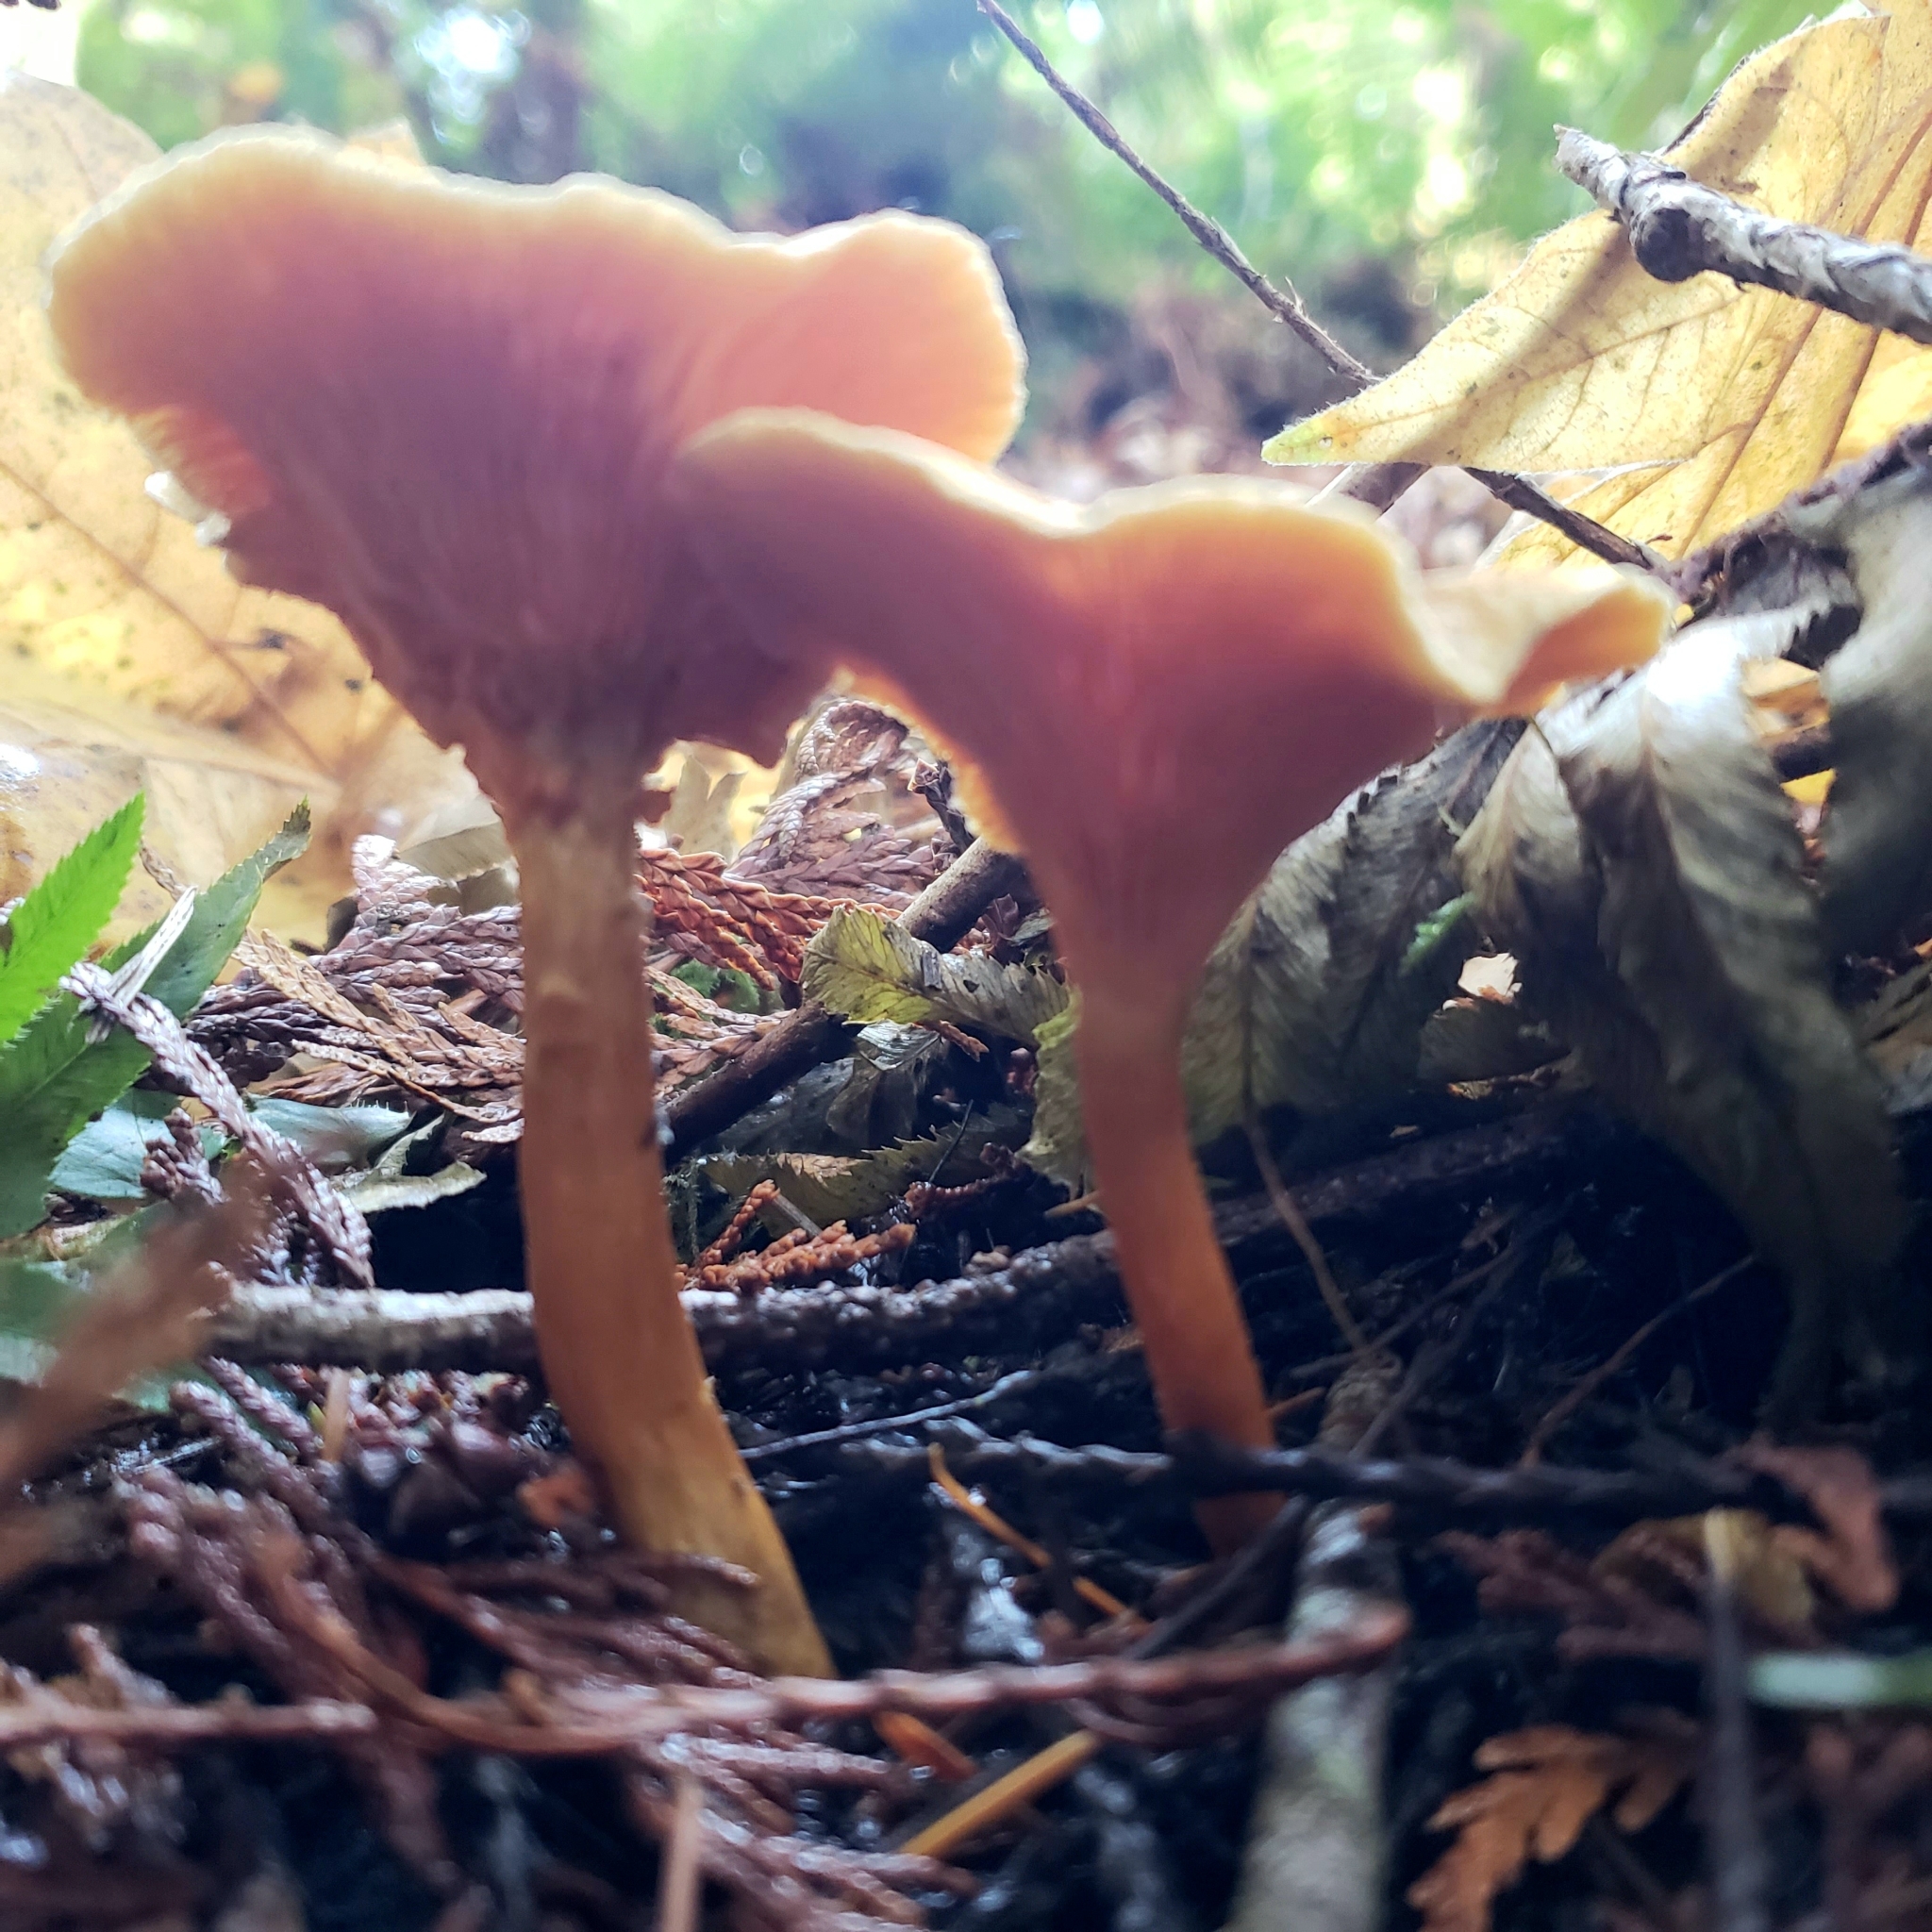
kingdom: Fungi
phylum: Basidiomycota
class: Agaricomycetes
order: Boletales
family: Hygrophoropsidaceae
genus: Hygrophoropsis
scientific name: Hygrophoropsis aurantiaca
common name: False chanterelle
